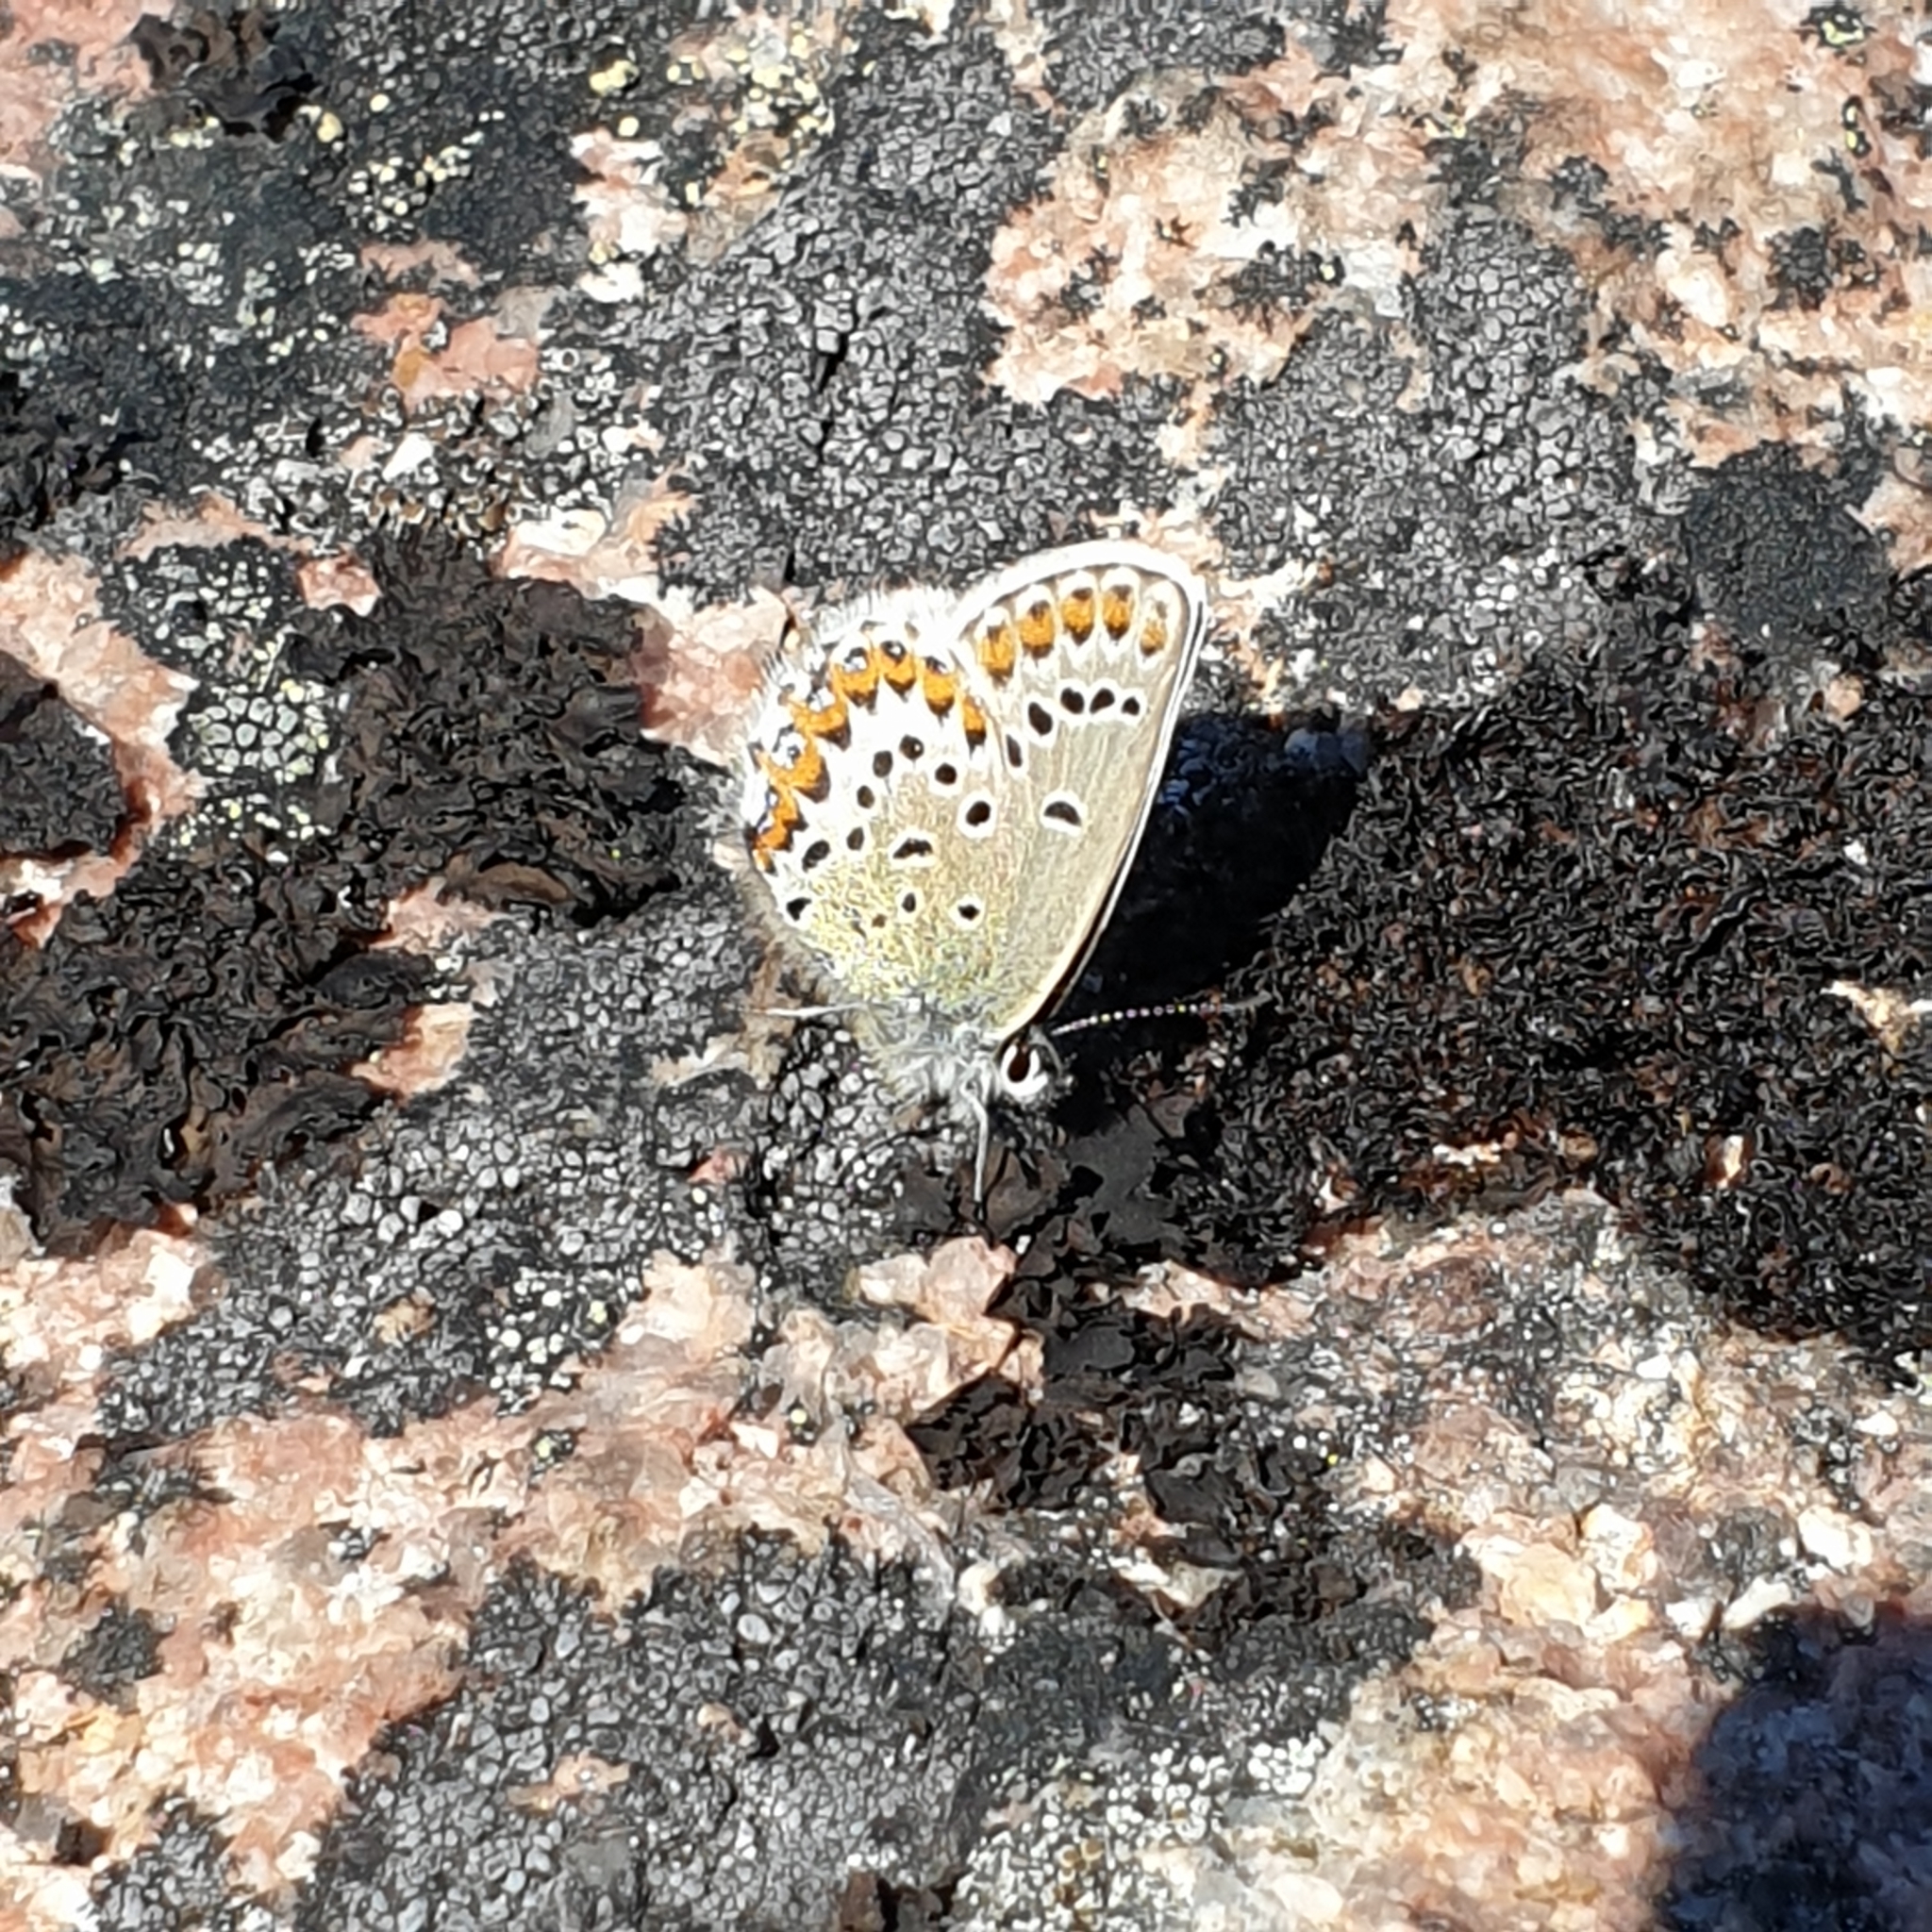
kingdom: Animalia
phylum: Arthropoda
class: Insecta
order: Lepidoptera
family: Lycaenidae
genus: Lycaeides
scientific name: Lycaeides idas
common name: Northern blue
